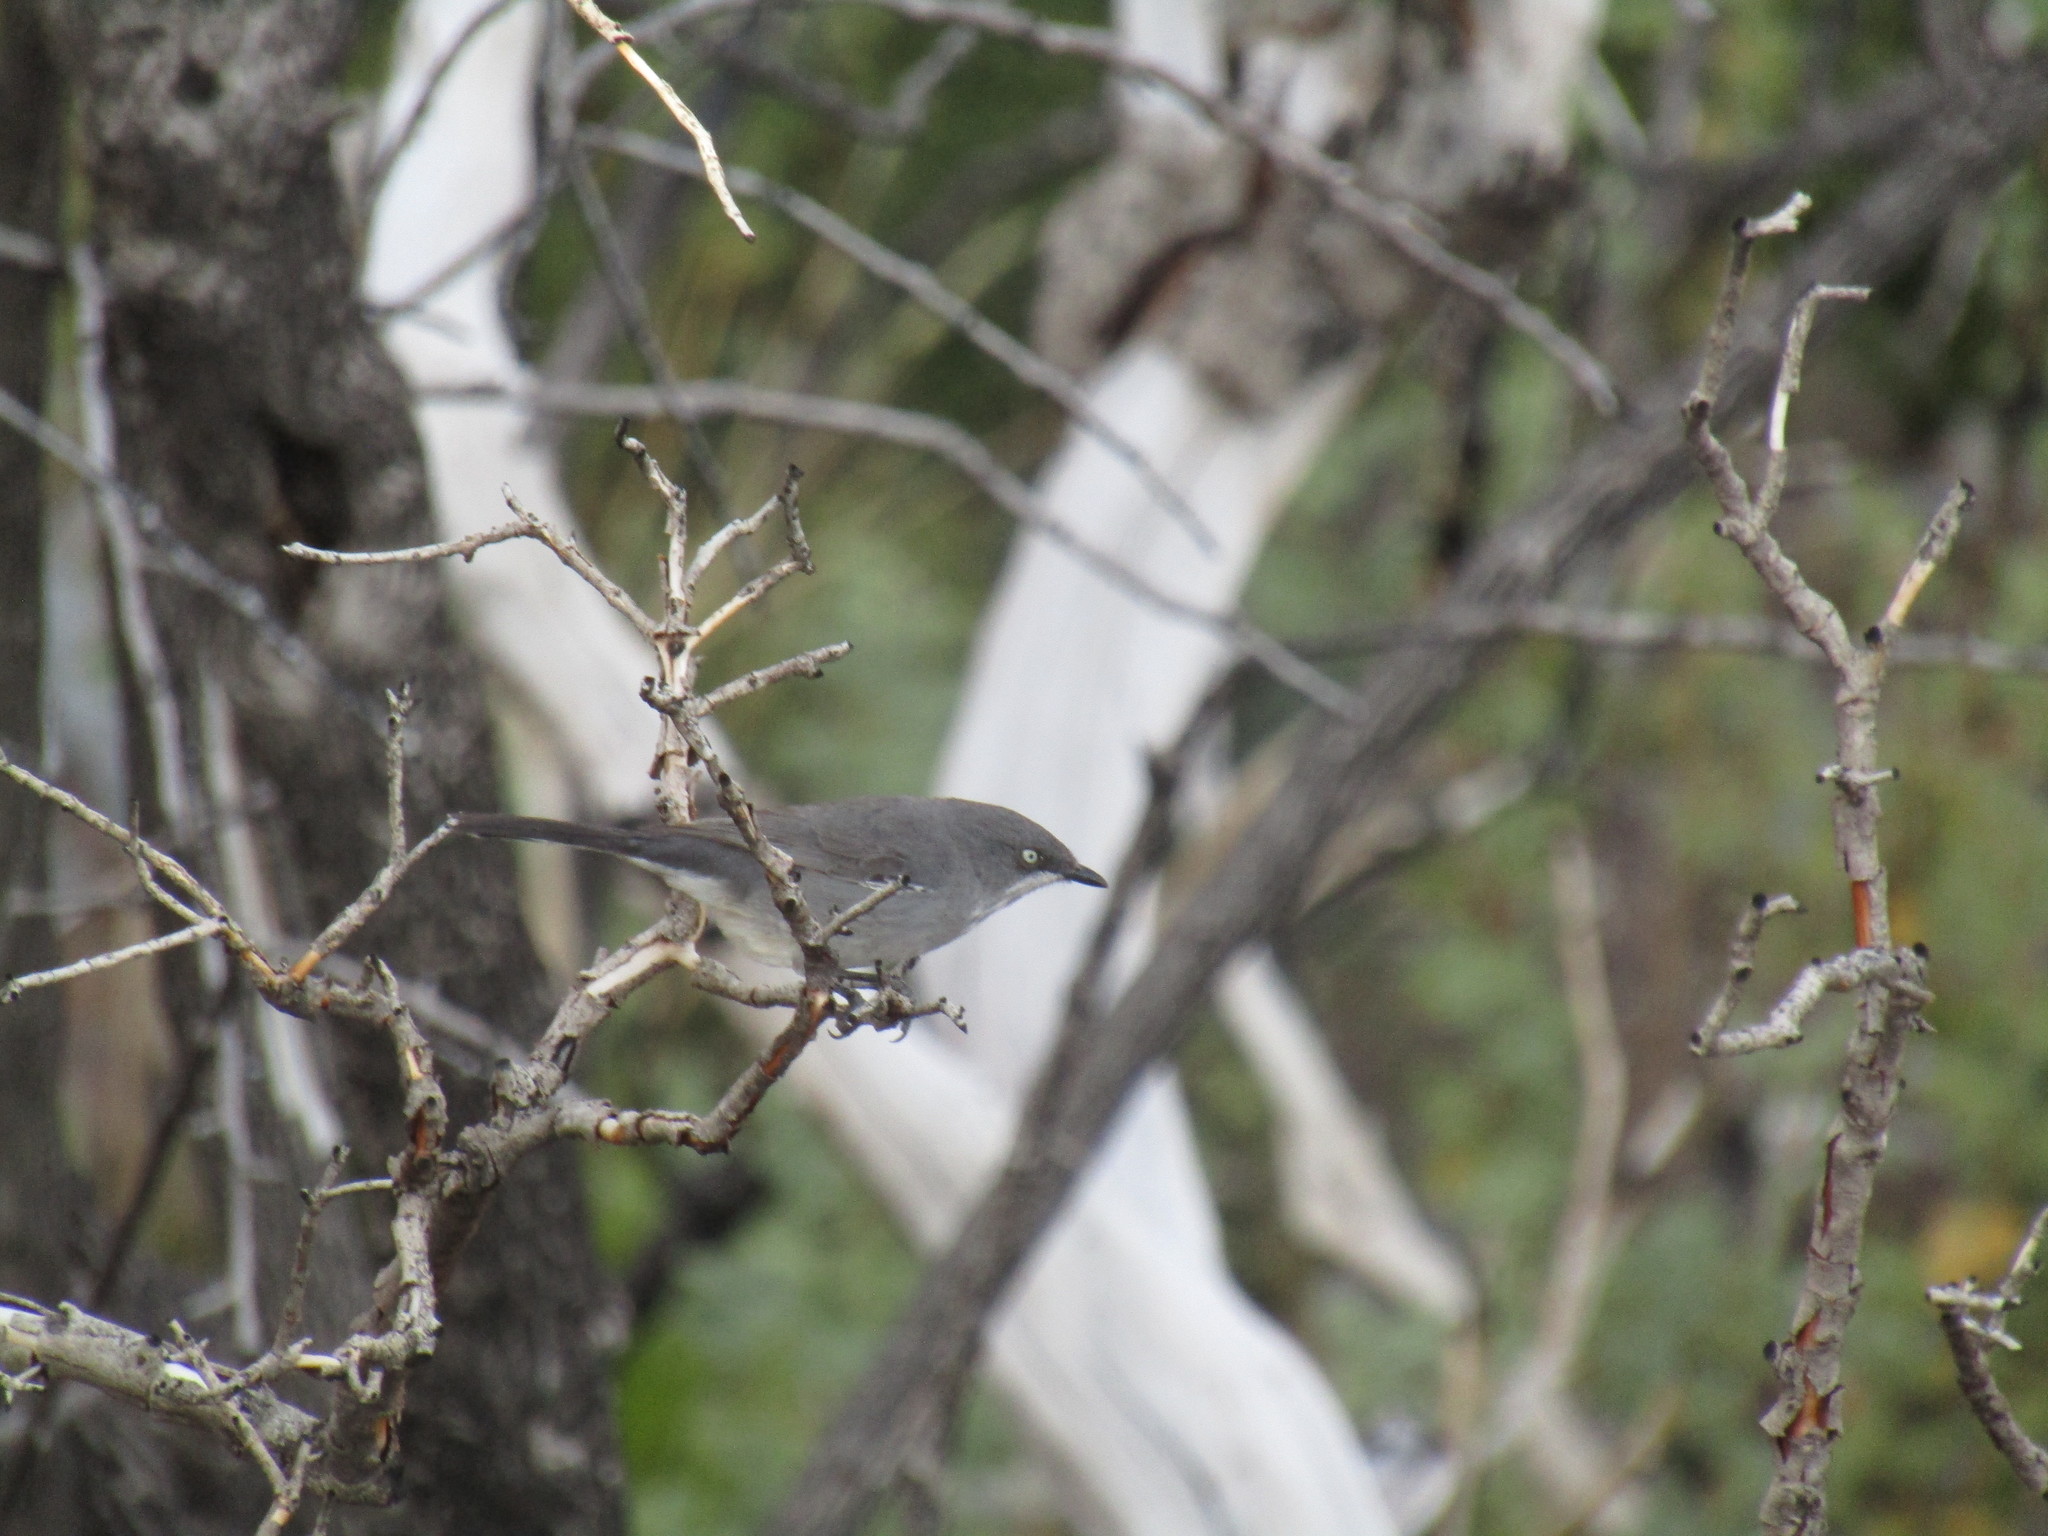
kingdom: Animalia
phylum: Chordata
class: Aves
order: Passeriformes
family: Sylviidae
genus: Sylvia
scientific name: Sylvia layardi
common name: Layard's warbler
